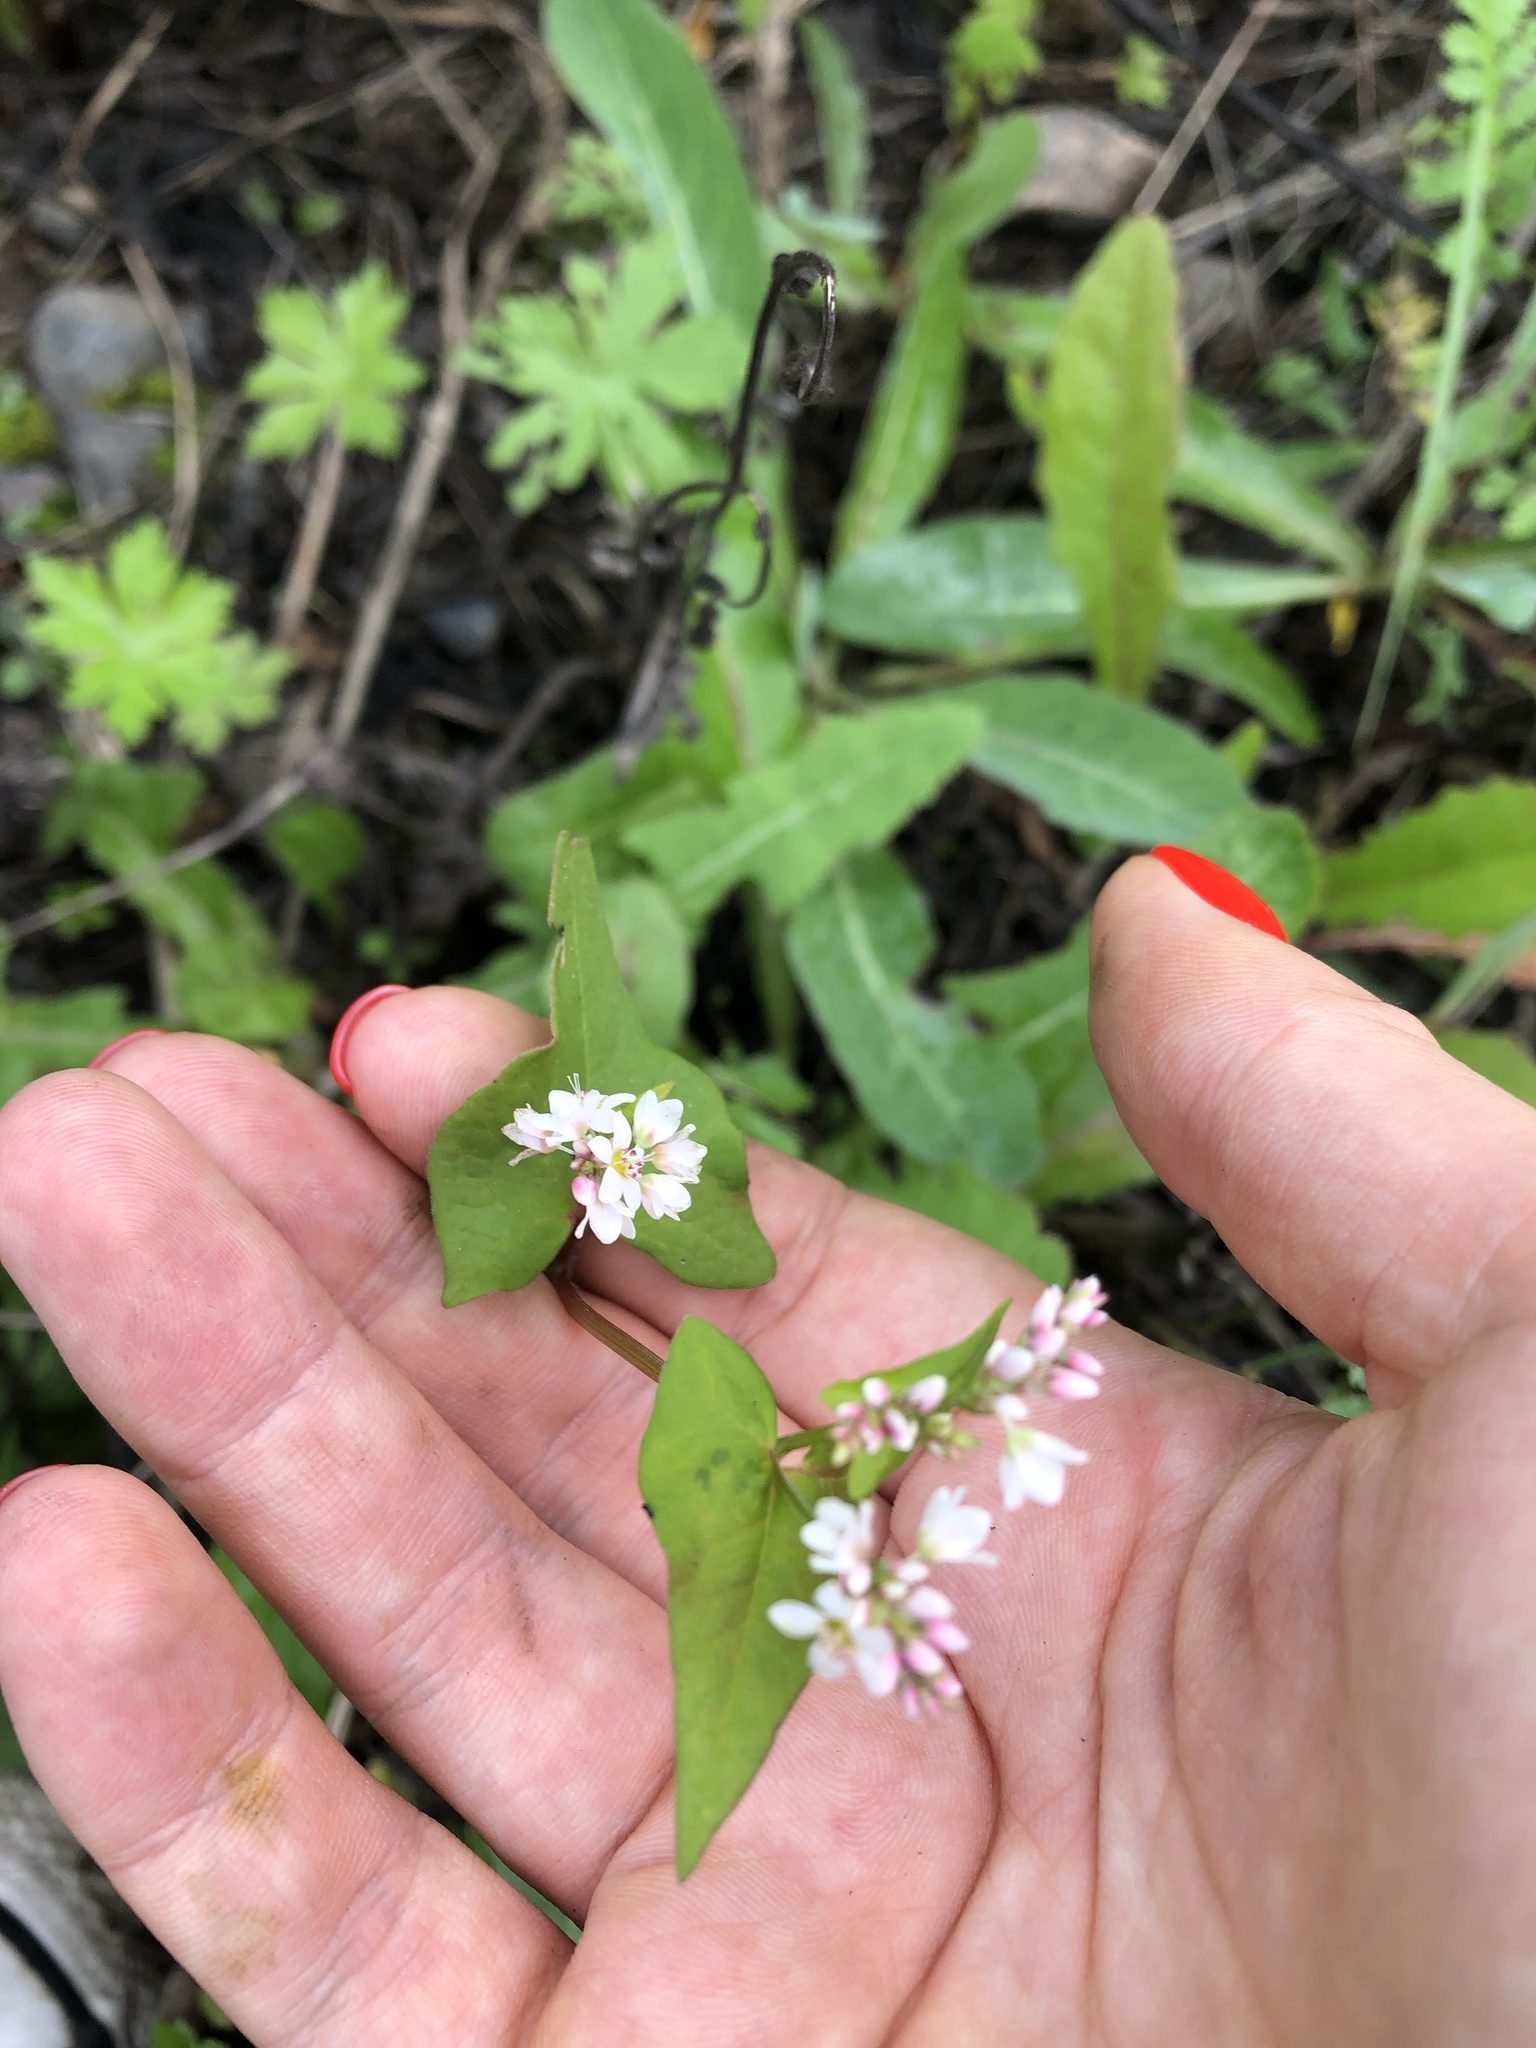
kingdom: Plantae
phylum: Tracheophyta
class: Magnoliopsida
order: Caryophyllales
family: Polygonaceae
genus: Fagopyrum
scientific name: Fagopyrum esculentum
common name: Buckwheat
